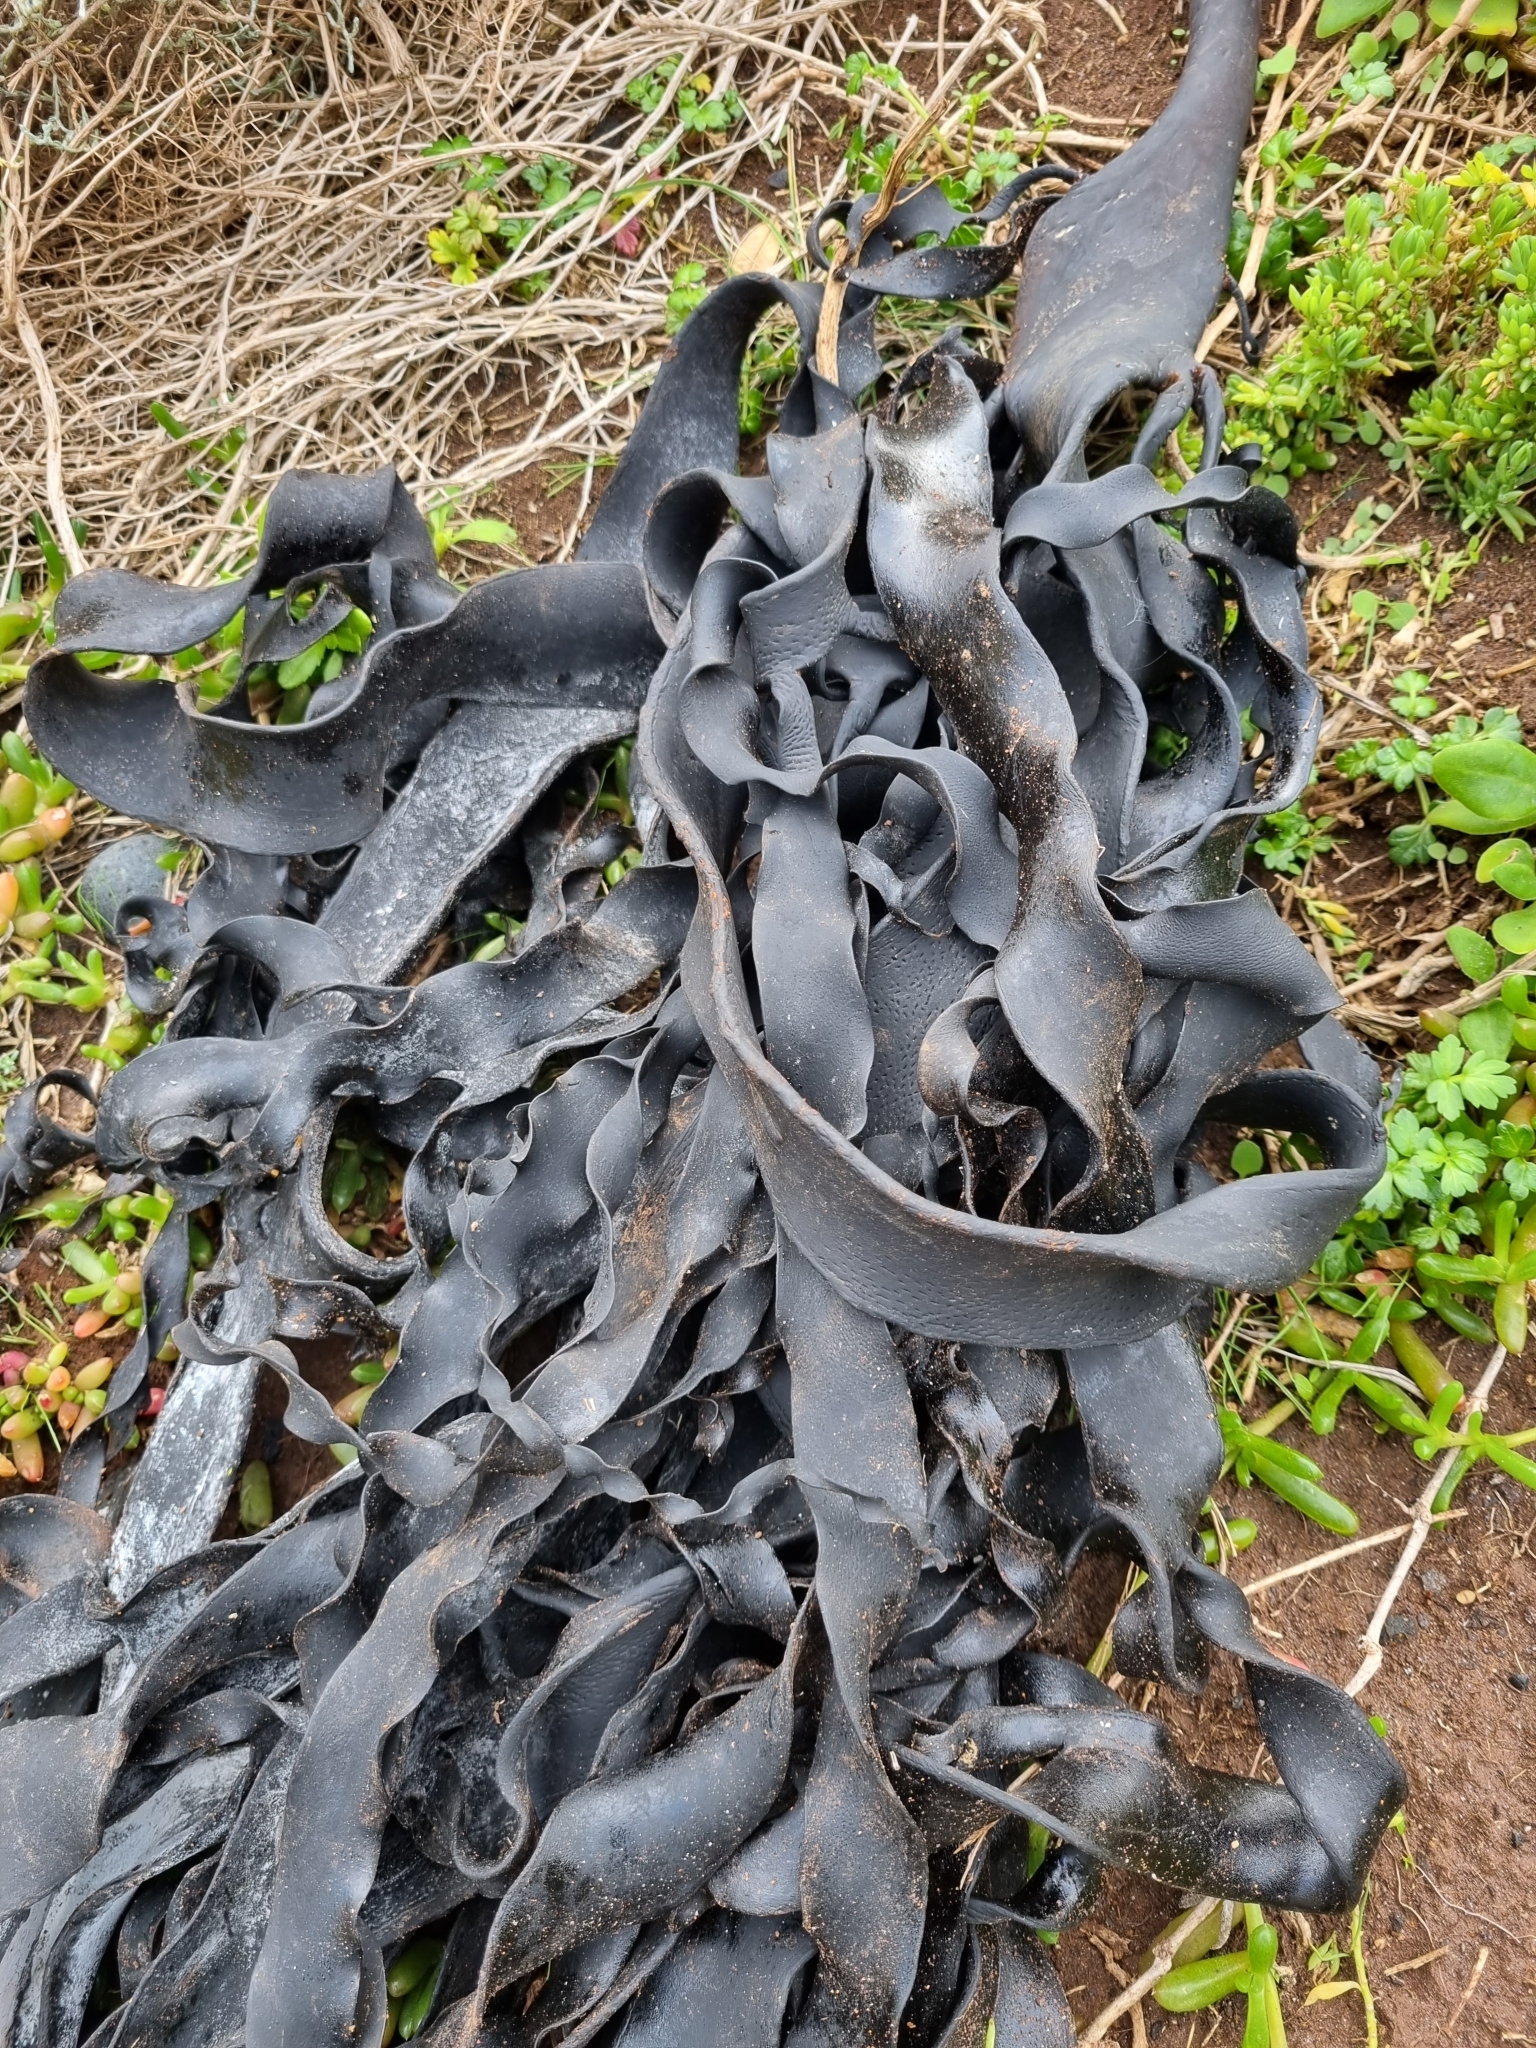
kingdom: Chromista
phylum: Ochrophyta
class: Phaeophyceae
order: Fucales
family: Durvillaeaceae
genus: Durvillaea
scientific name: Durvillaea
